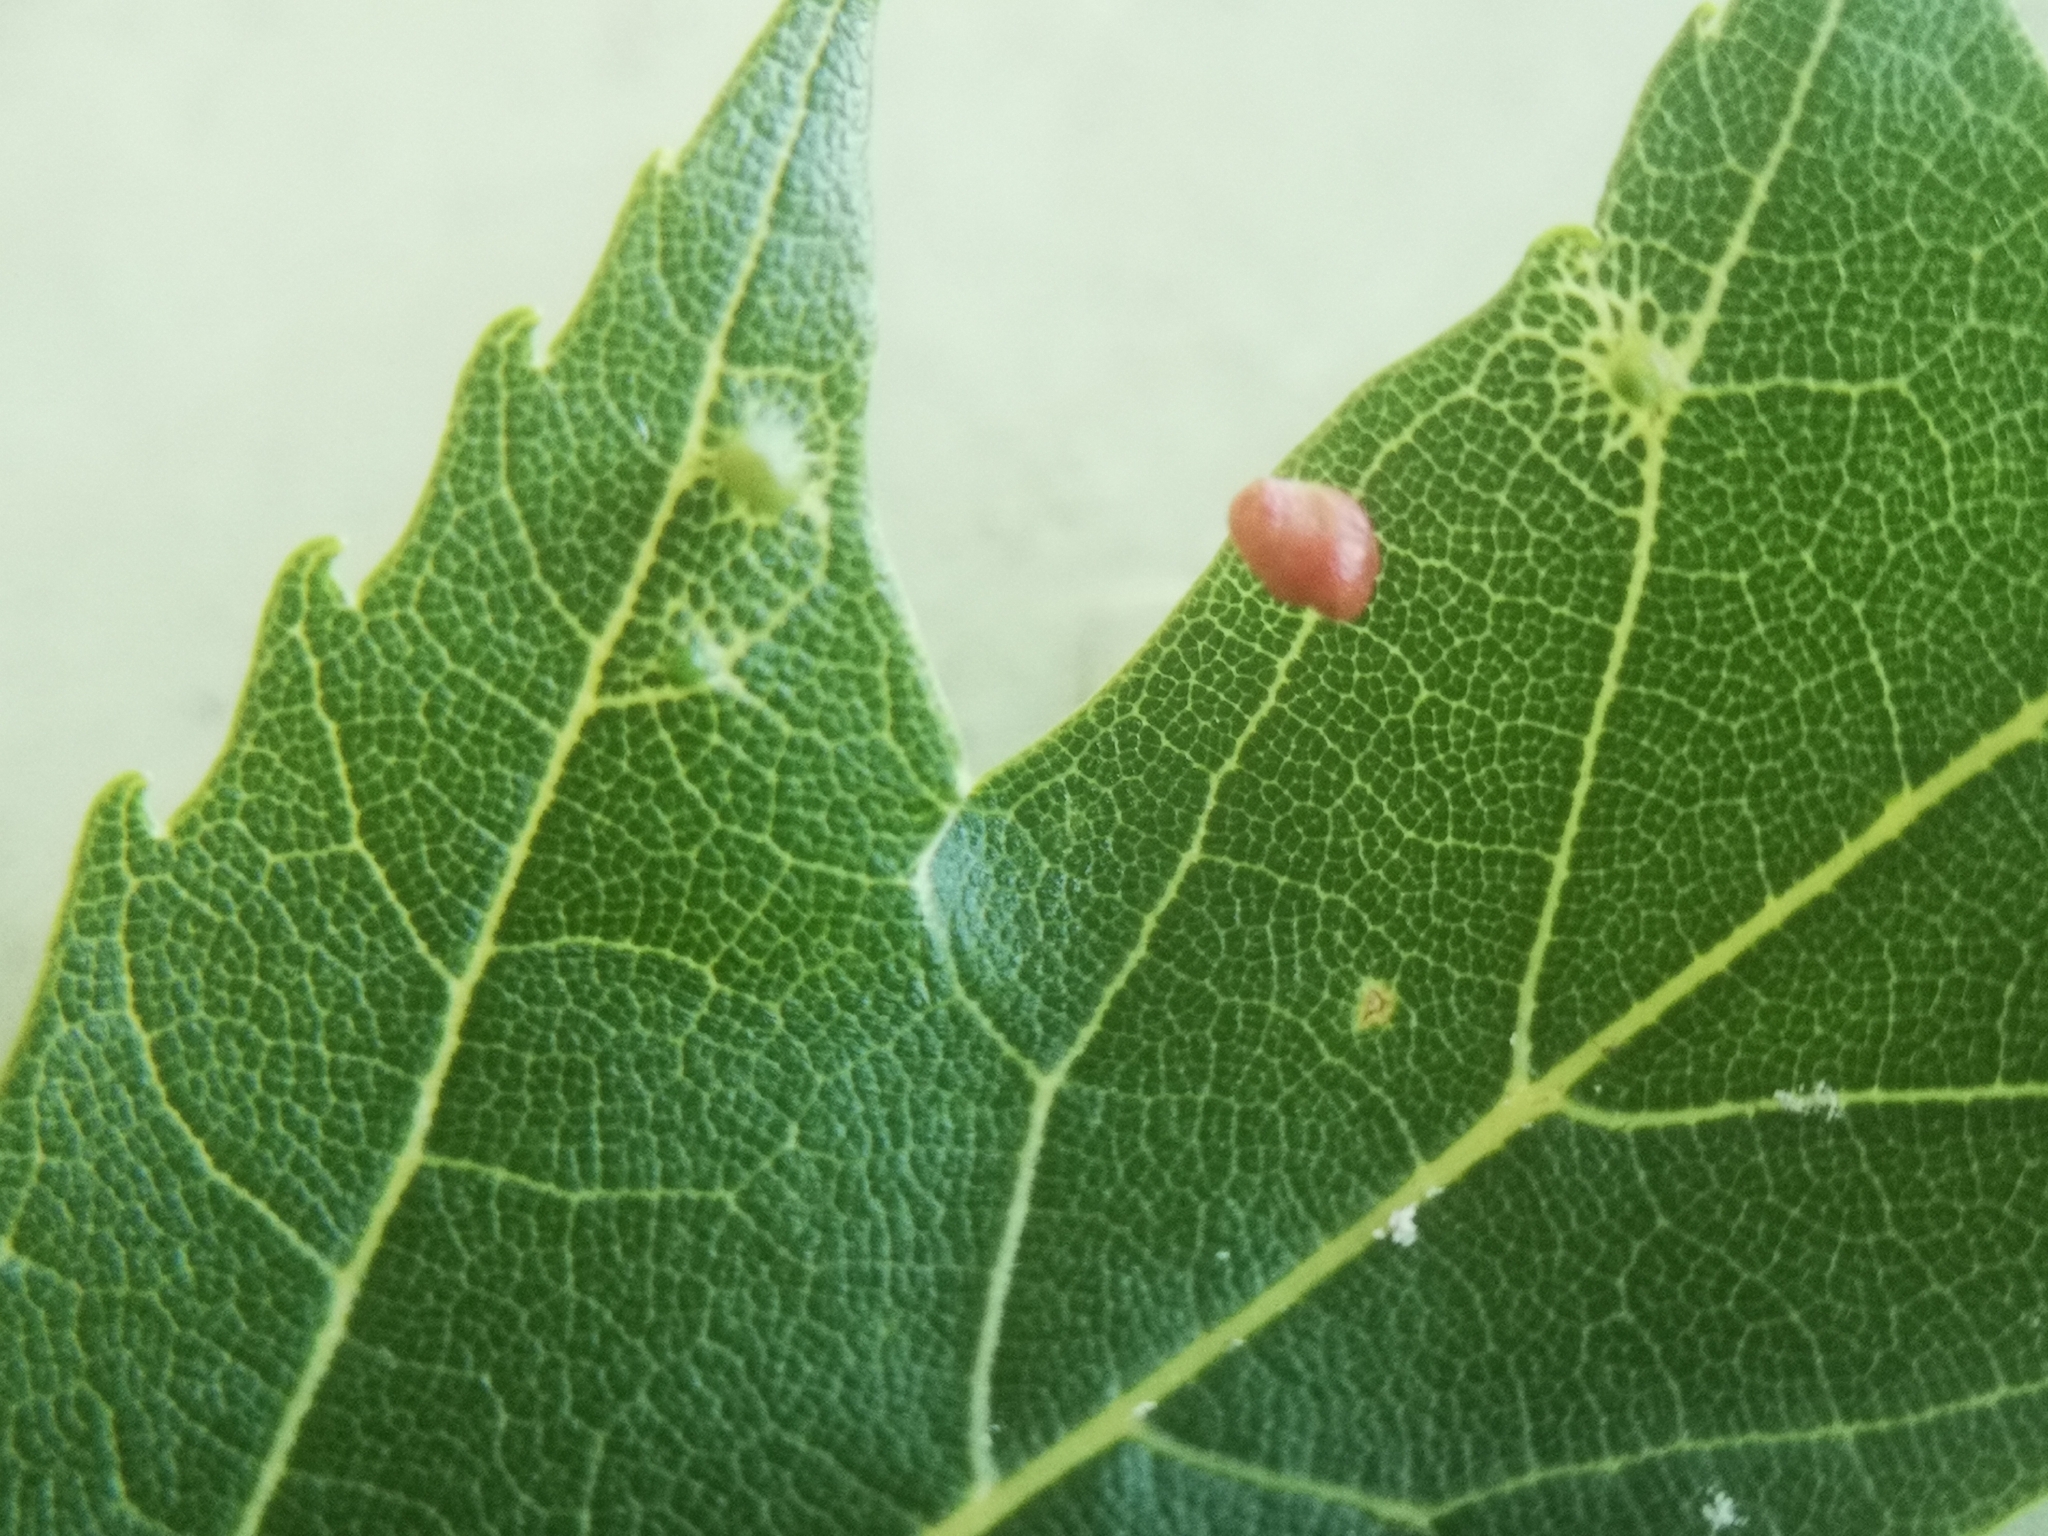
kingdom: Animalia
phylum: Arthropoda
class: Arachnida
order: Trombidiformes
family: Eriophyidae
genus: Vasates
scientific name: Vasates quadripedes
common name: Maple bladder gall mite
